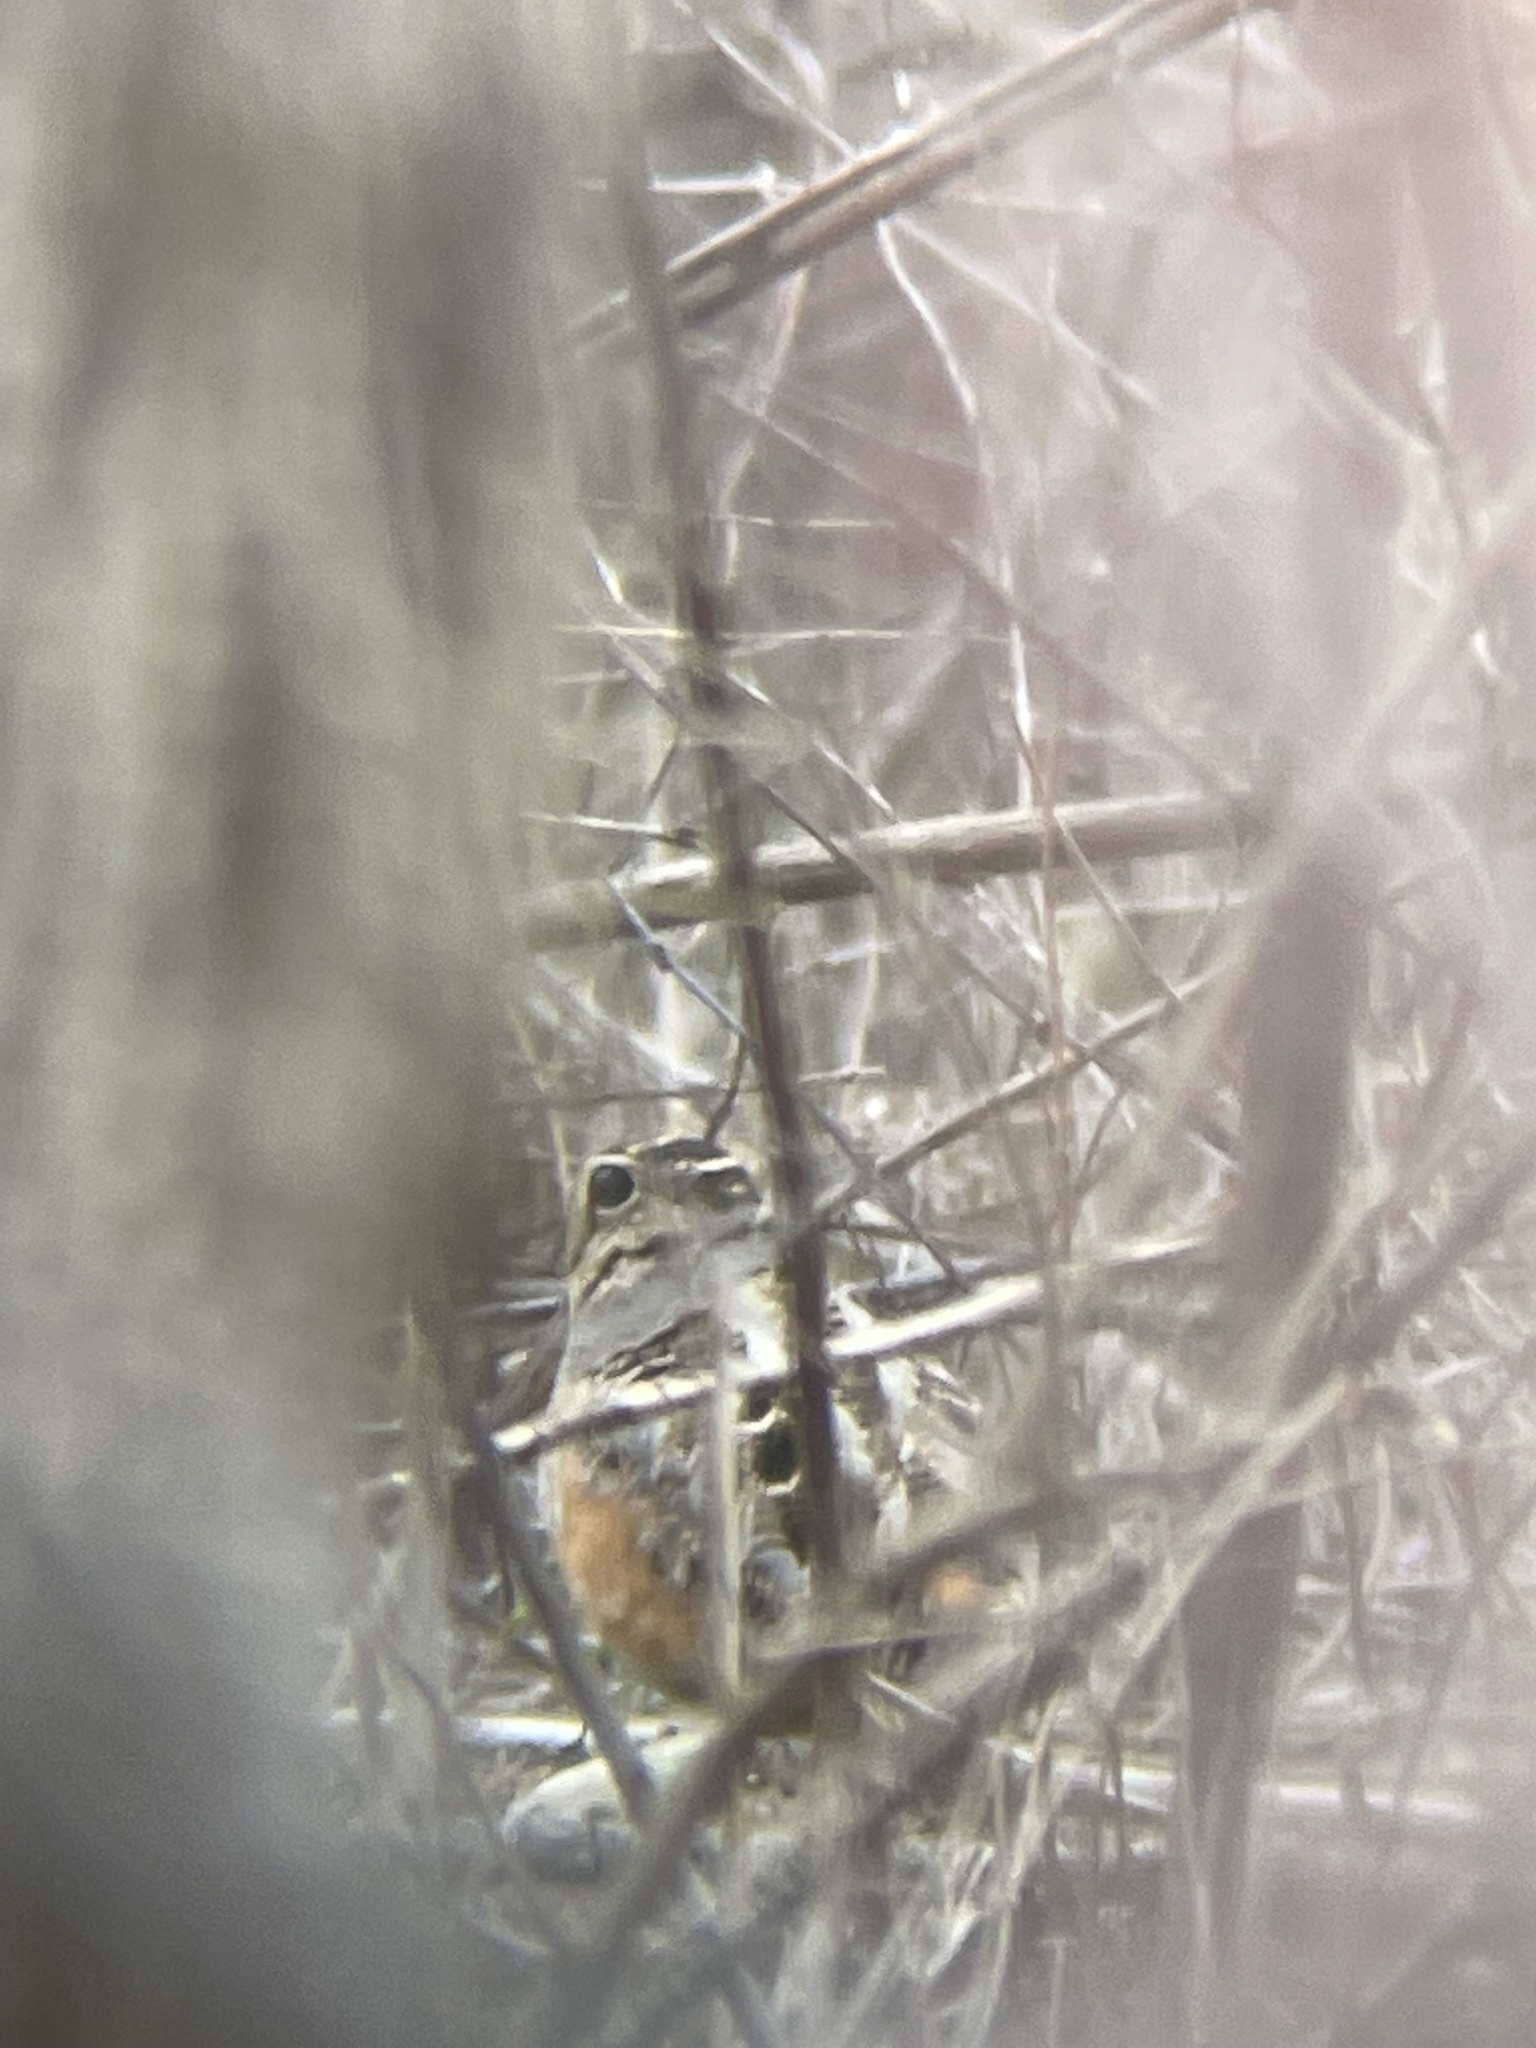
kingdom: Animalia
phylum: Chordata
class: Aves
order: Charadriiformes
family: Scolopacidae
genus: Scolopax
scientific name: Scolopax minor
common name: American woodcock
